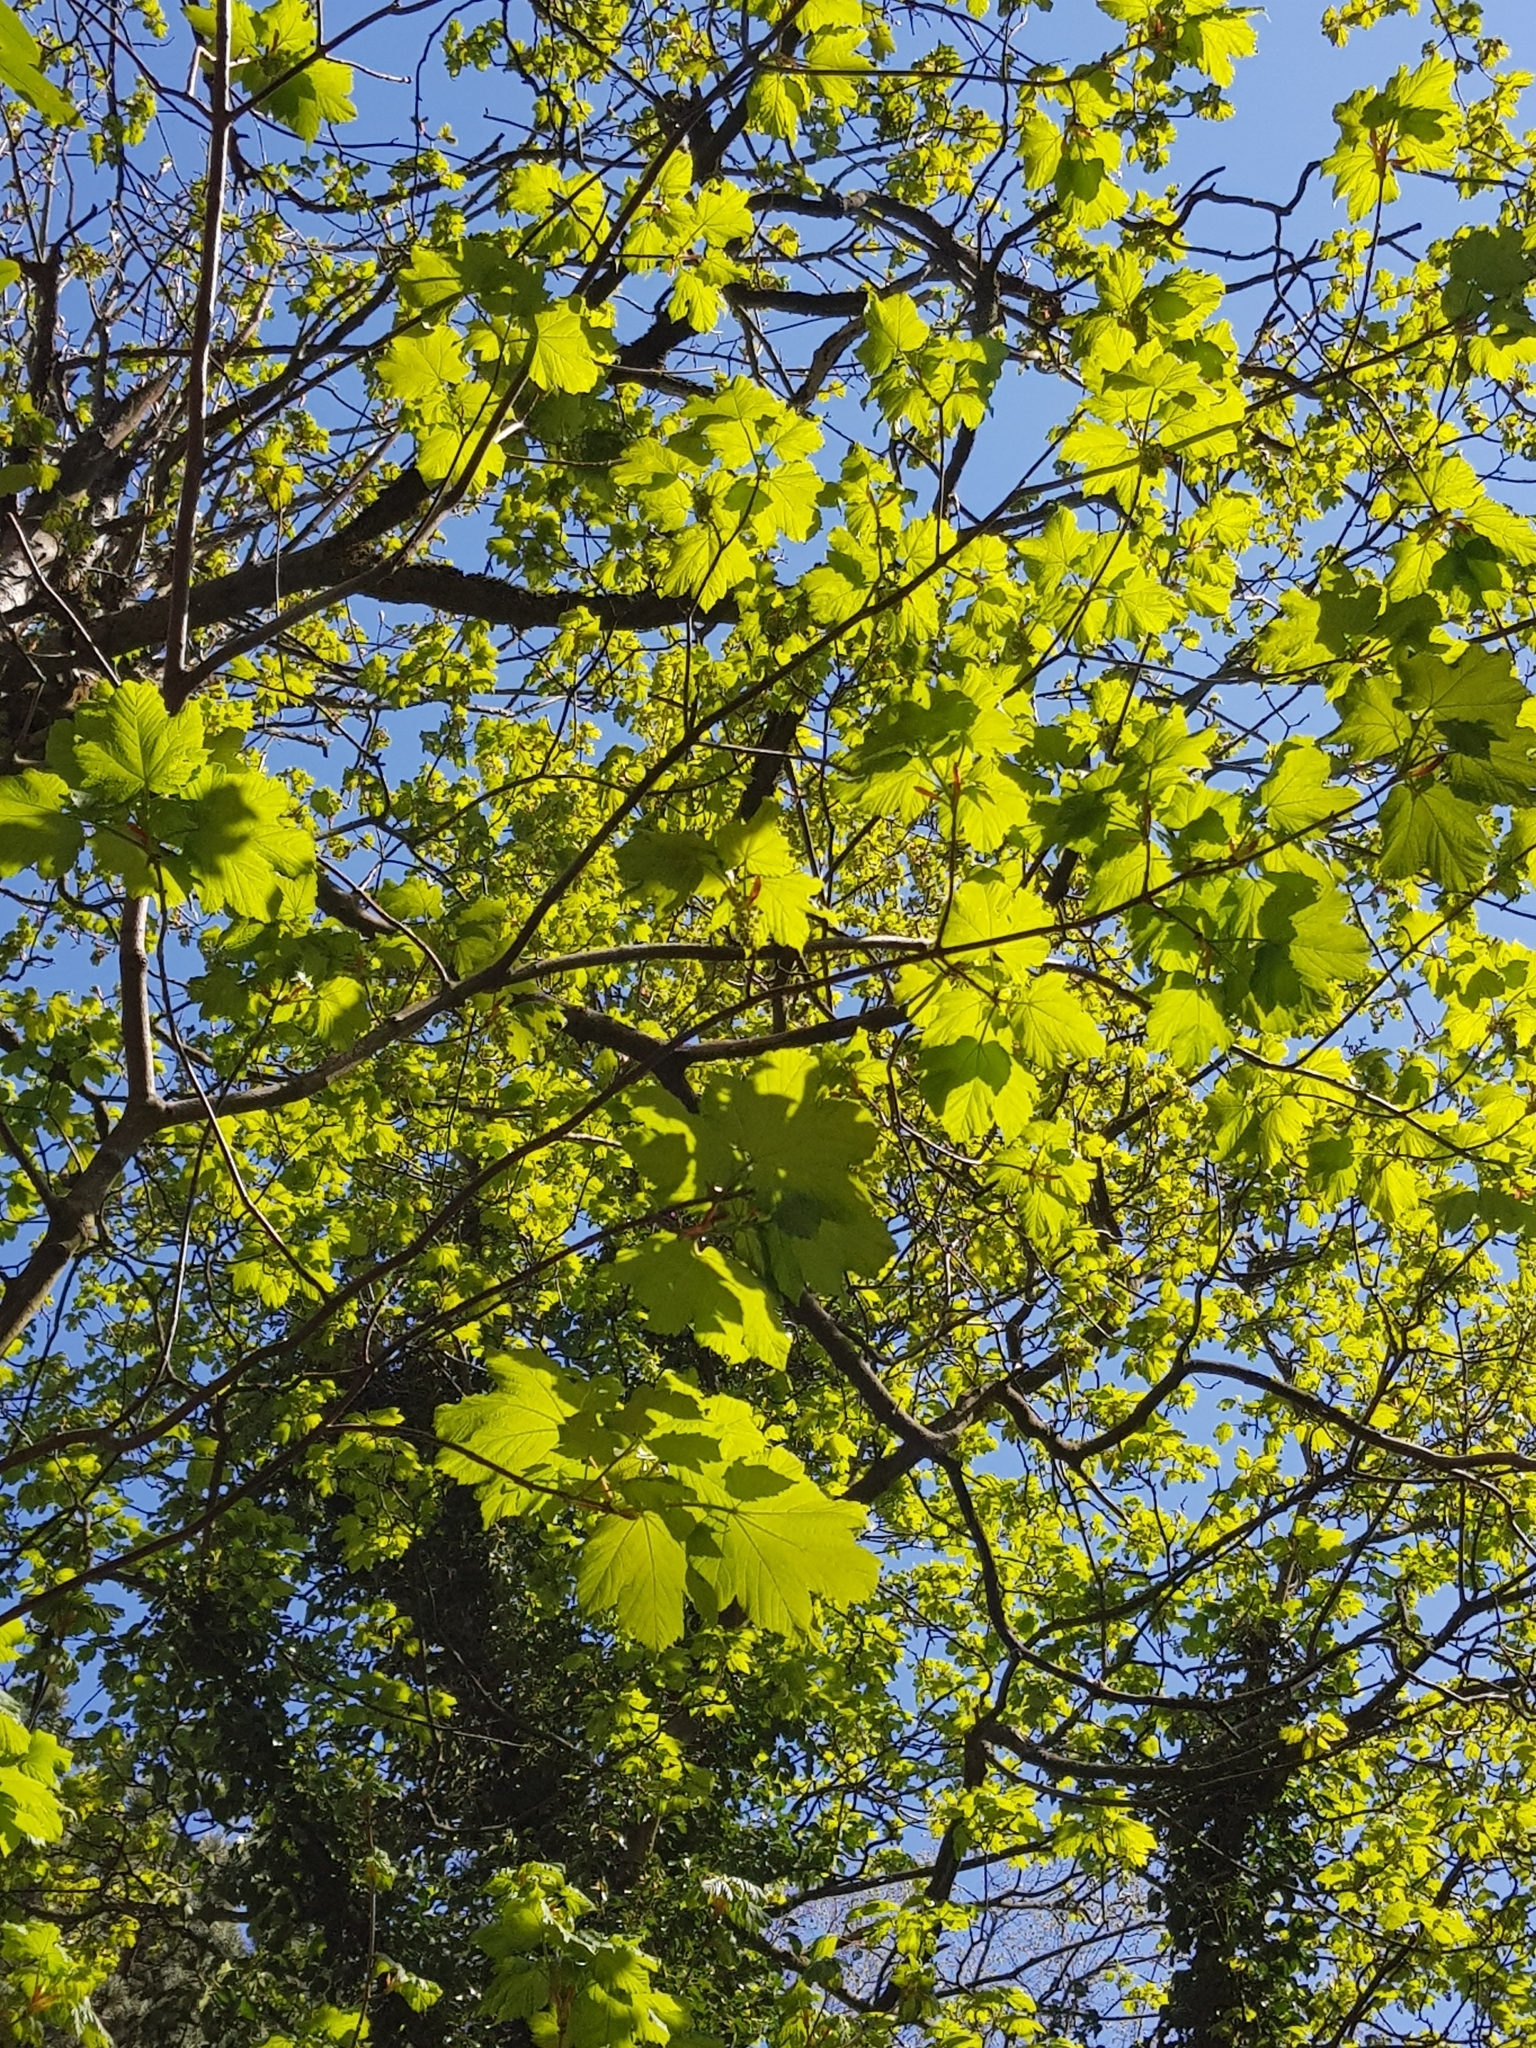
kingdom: Plantae
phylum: Tracheophyta
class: Magnoliopsida
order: Sapindales
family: Sapindaceae
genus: Acer
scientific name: Acer pseudoplatanus
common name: Sycamore
